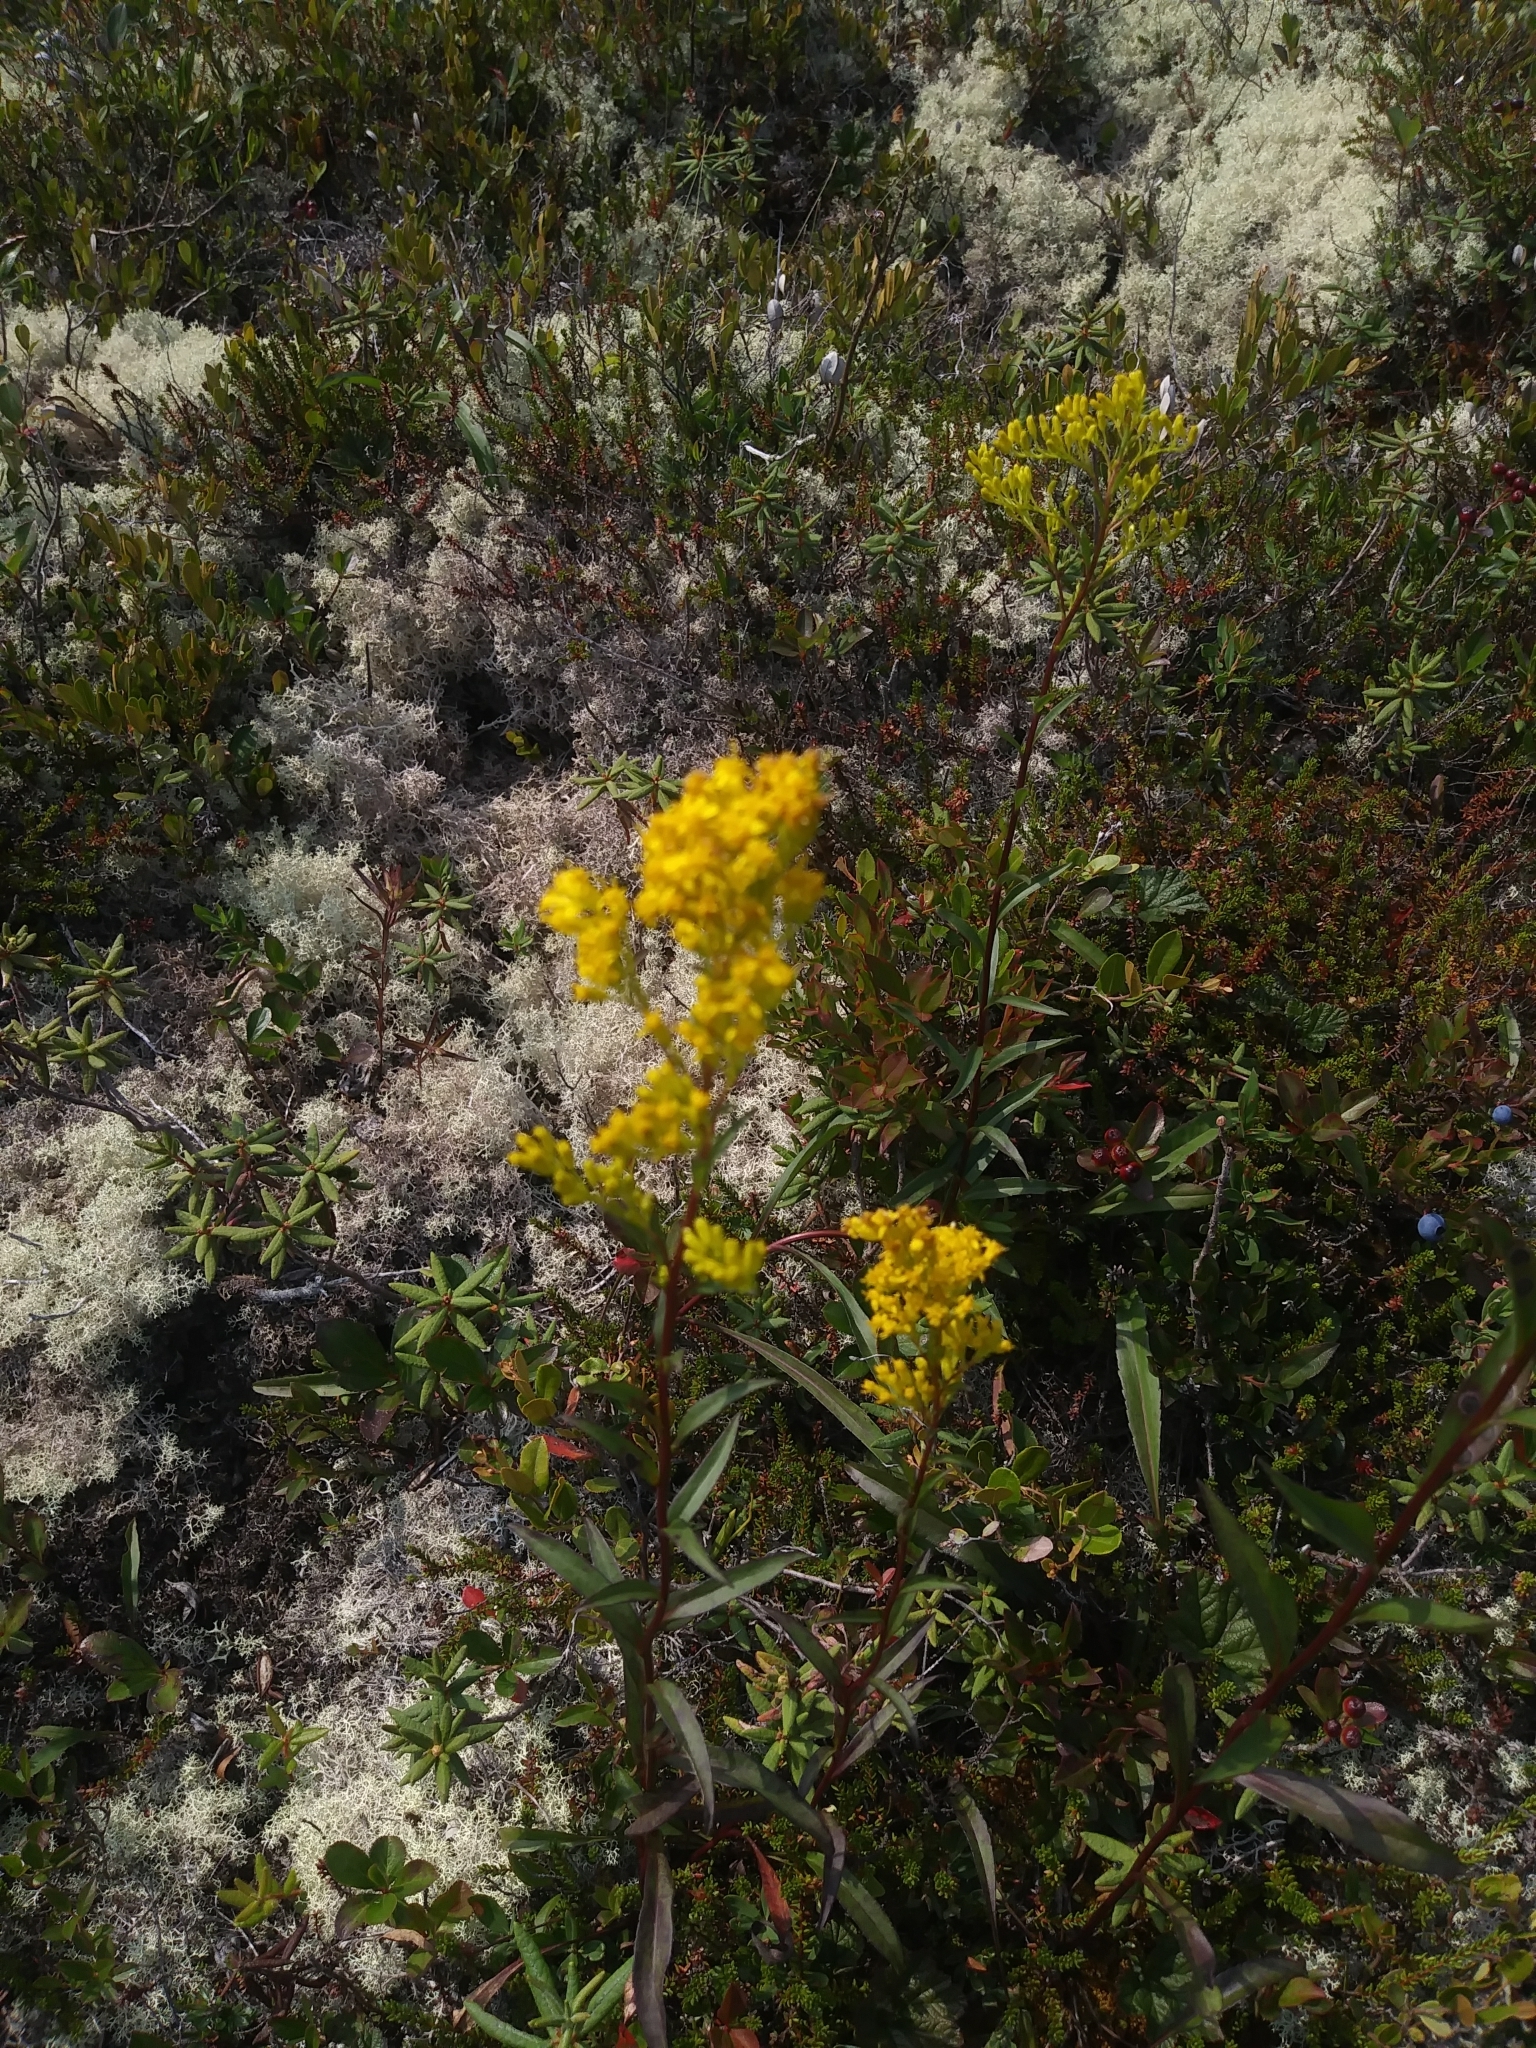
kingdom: Plantae
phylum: Tracheophyta
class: Magnoliopsida
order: Asterales
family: Asteraceae
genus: Solidago
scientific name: Solidago uliginosa
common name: Bog goldenrod
